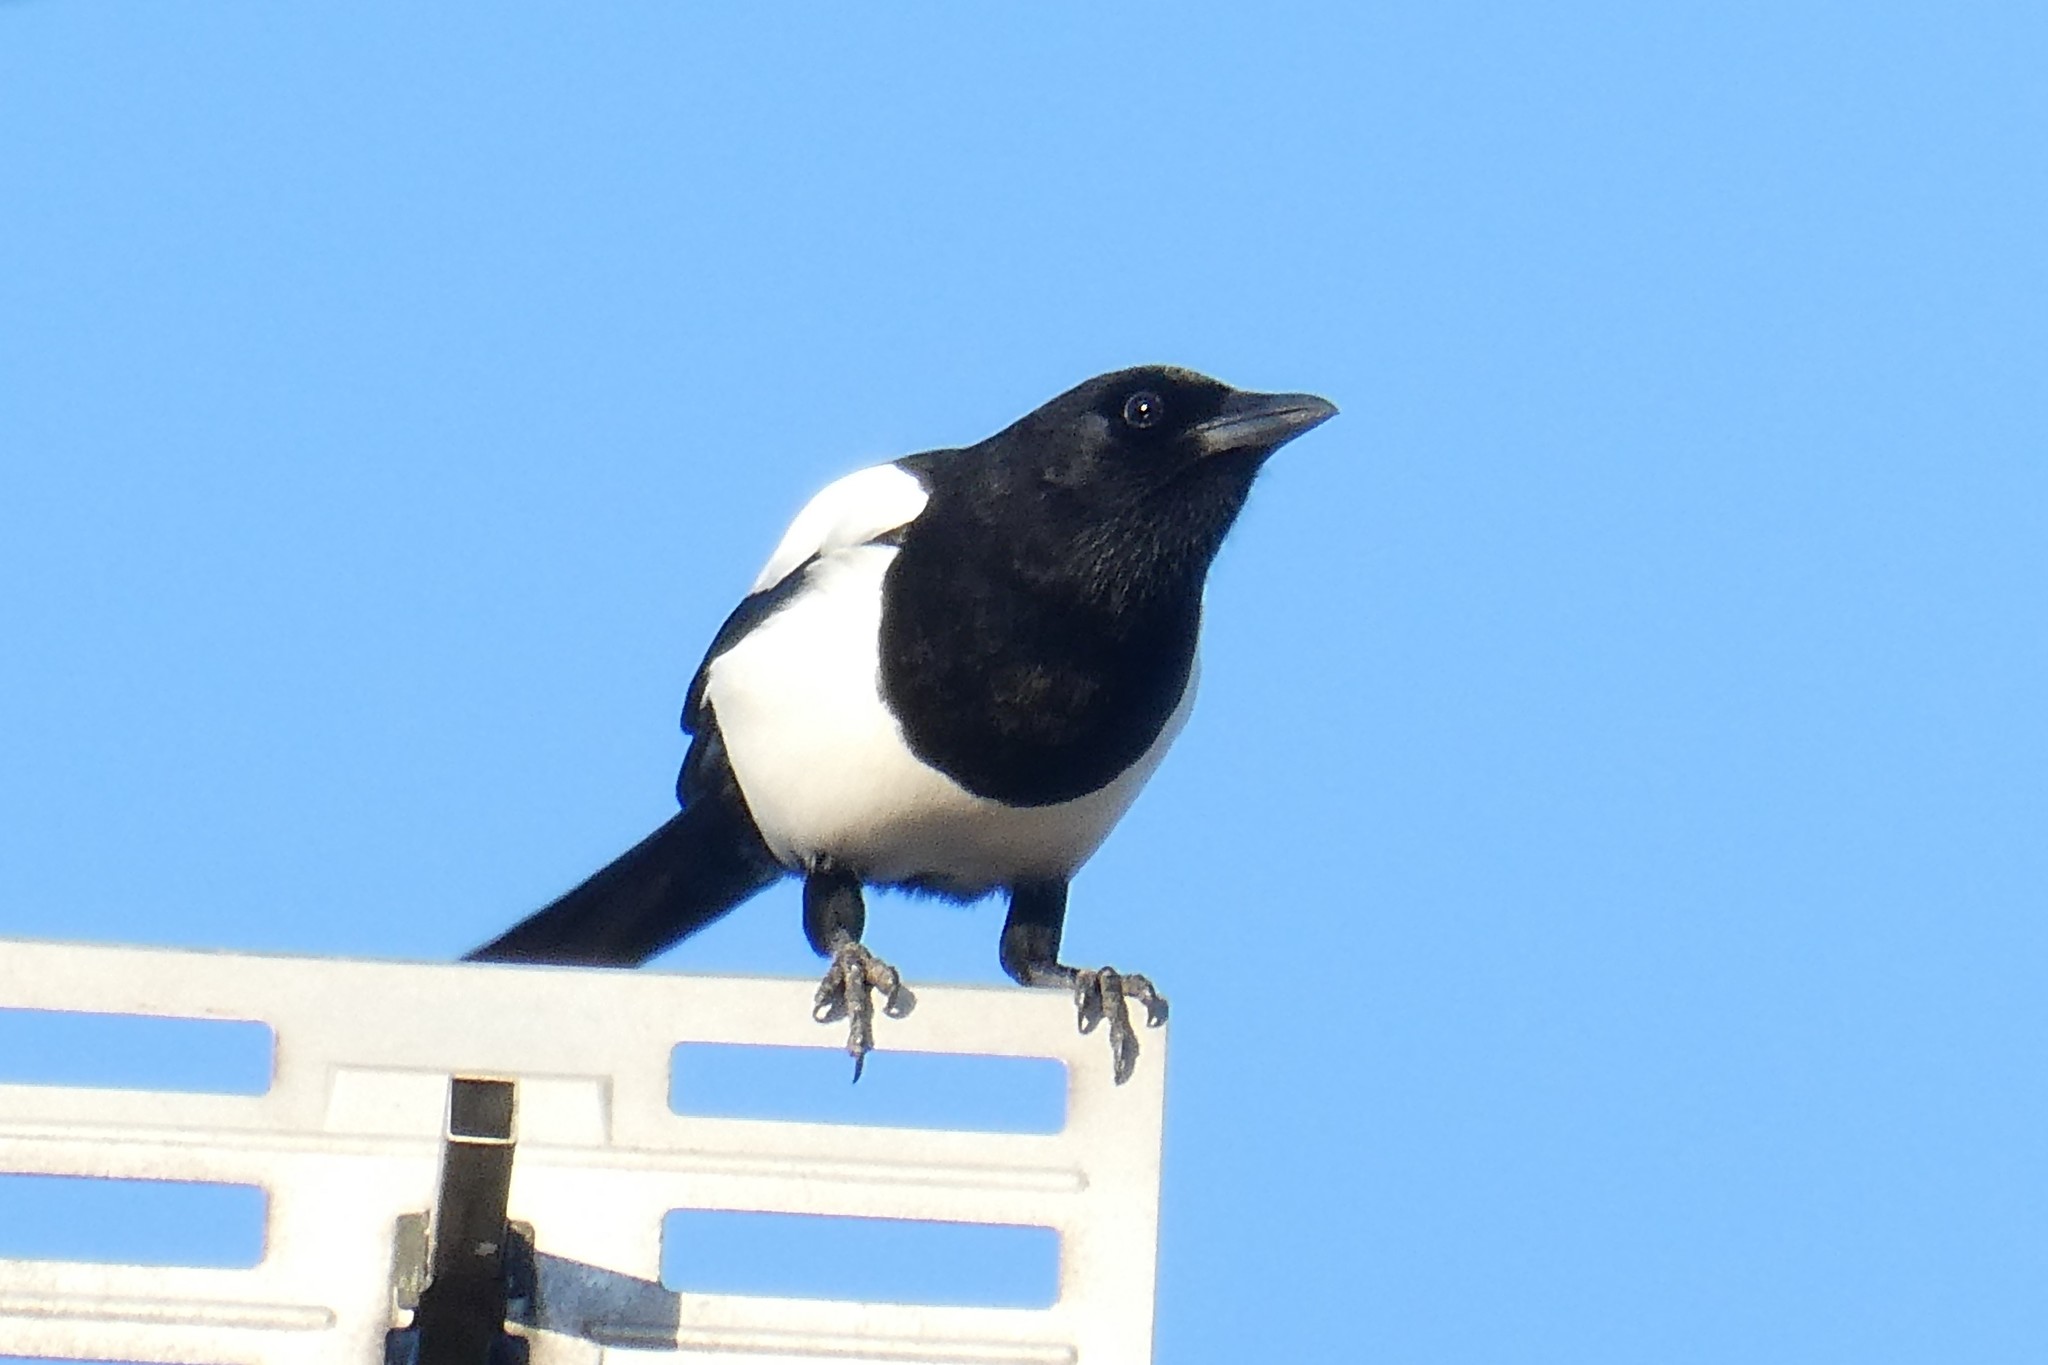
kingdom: Animalia
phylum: Chordata
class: Aves
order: Passeriformes
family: Corvidae
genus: Pica
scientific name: Pica pica
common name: Eurasian magpie
